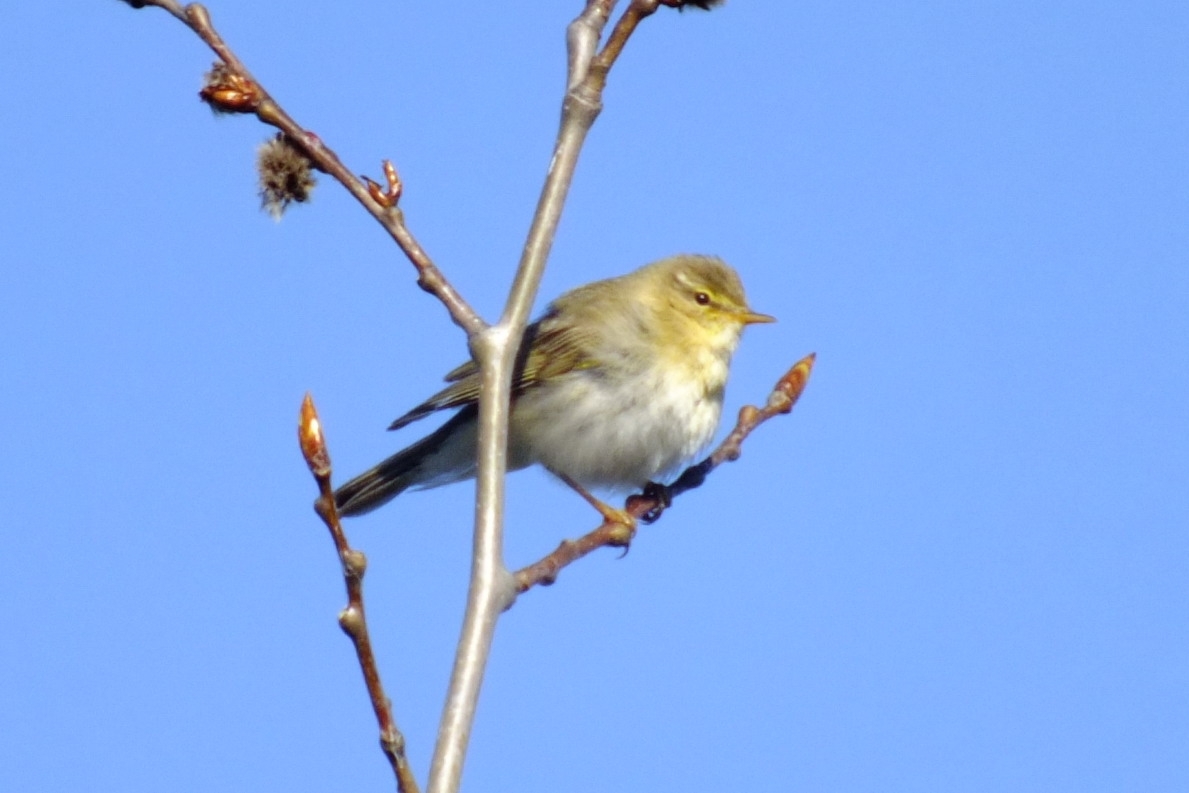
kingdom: Animalia
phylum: Chordata
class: Aves
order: Passeriformes
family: Phylloscopidae
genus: Phylloscopus
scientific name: Phylloscopus trochilus
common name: Willow warbler
